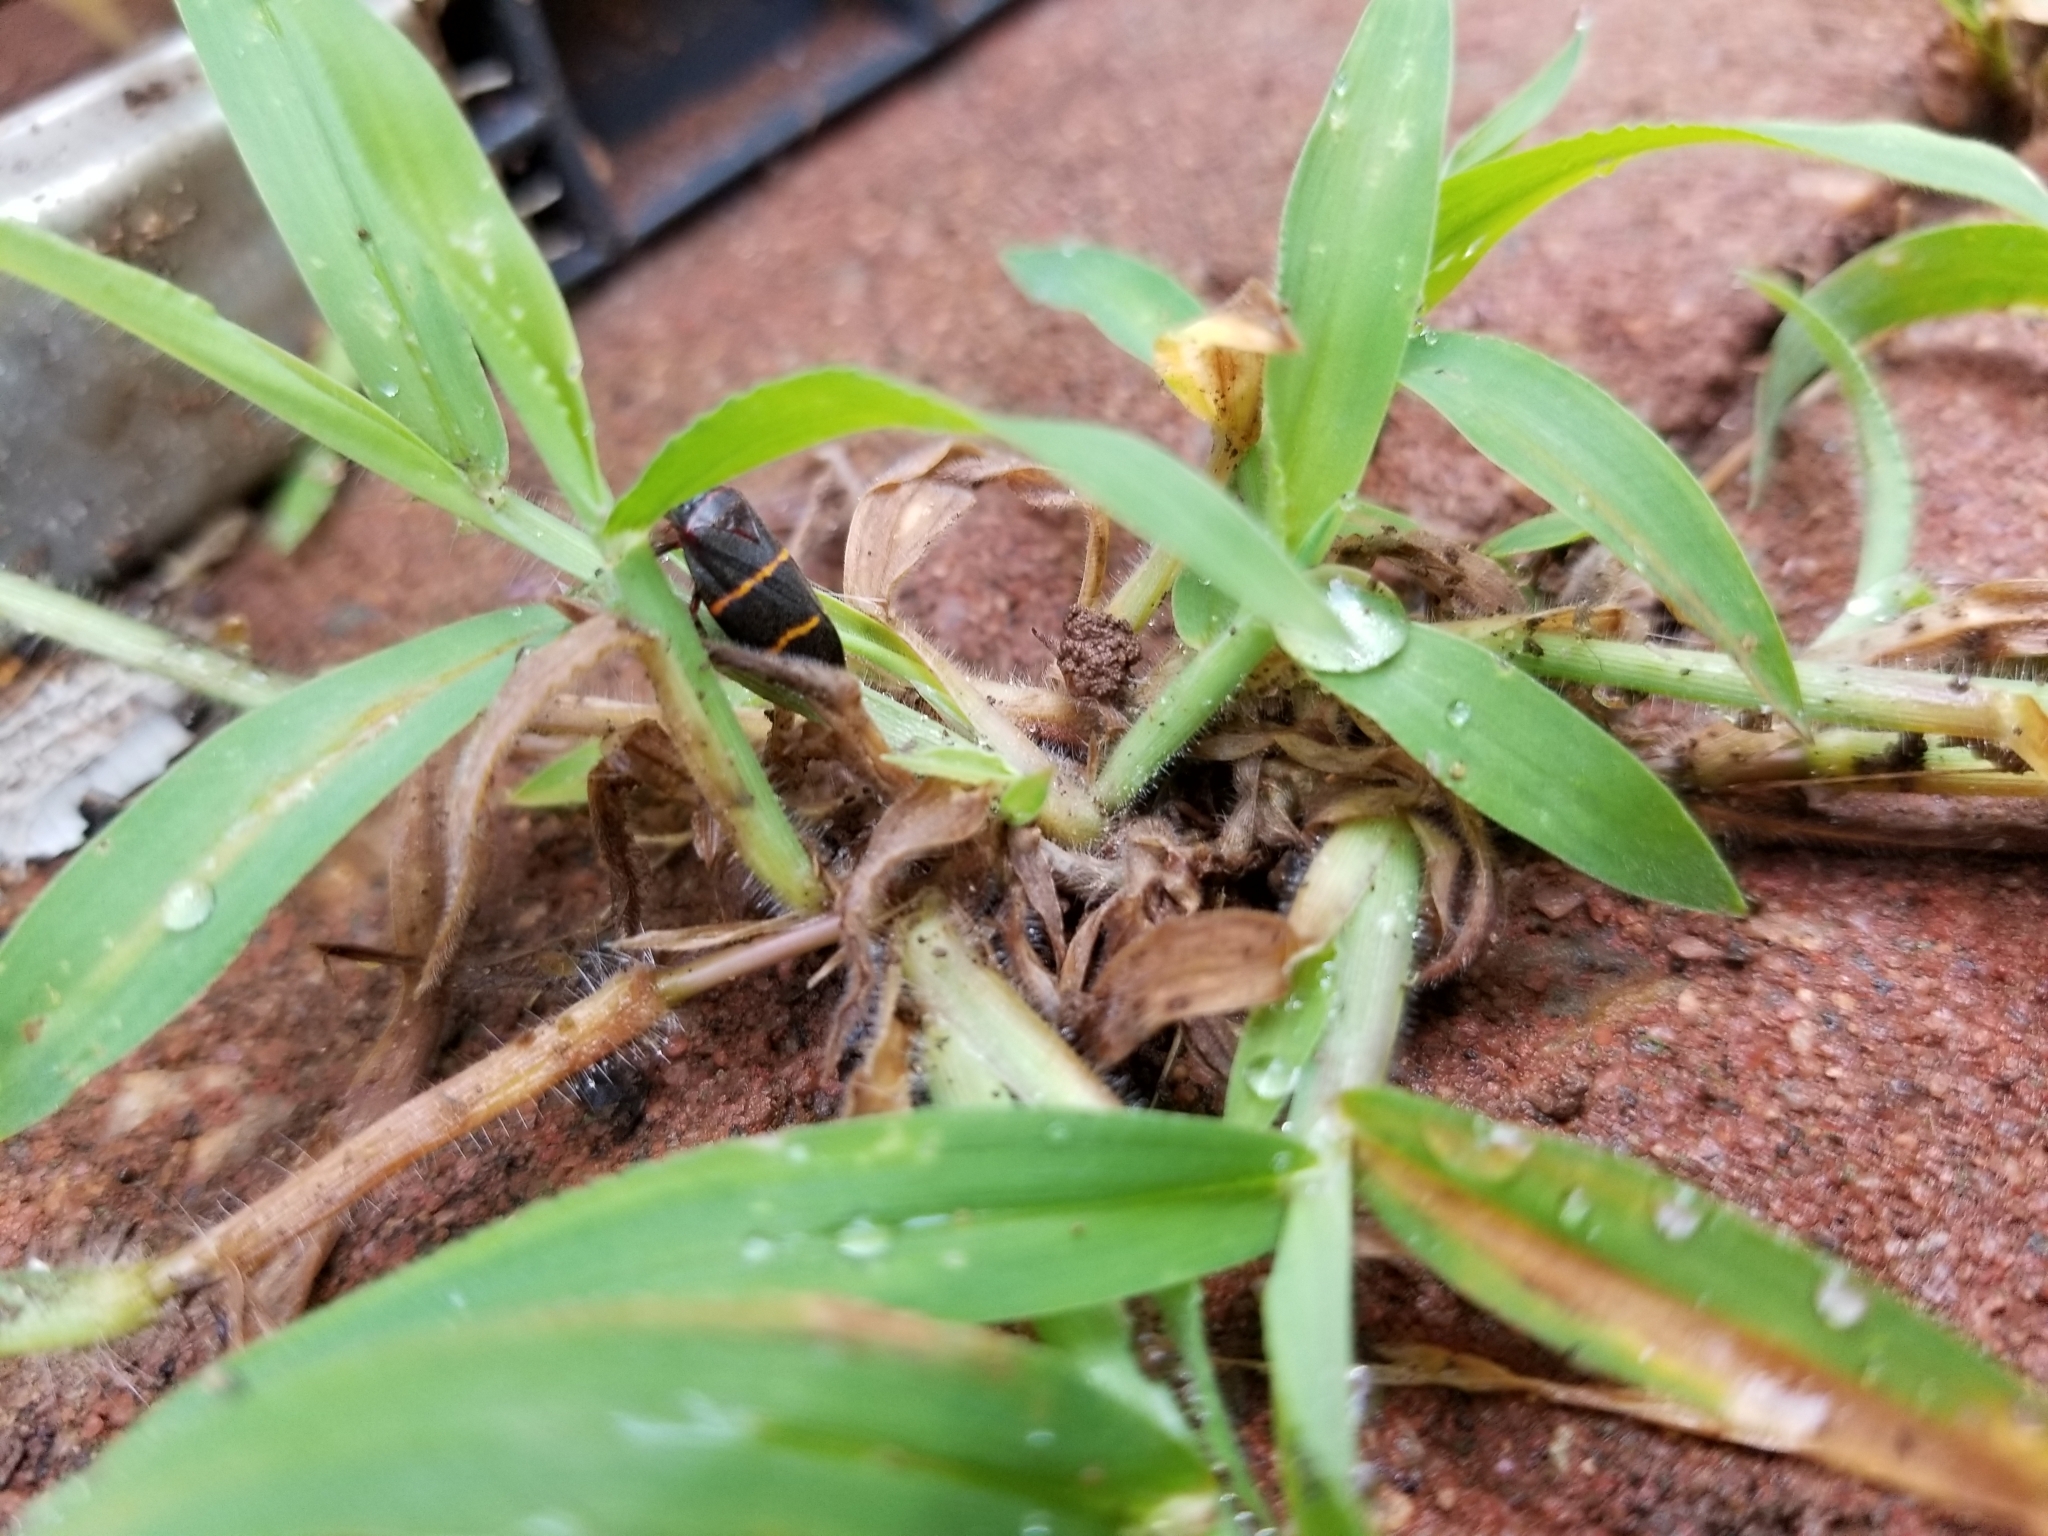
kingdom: Animalia
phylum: Arthropoda
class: Insecta
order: Hemiptera
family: Cercopidae
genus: Prosapia
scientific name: Prosapia bicincta
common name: Twolined spittlebug
